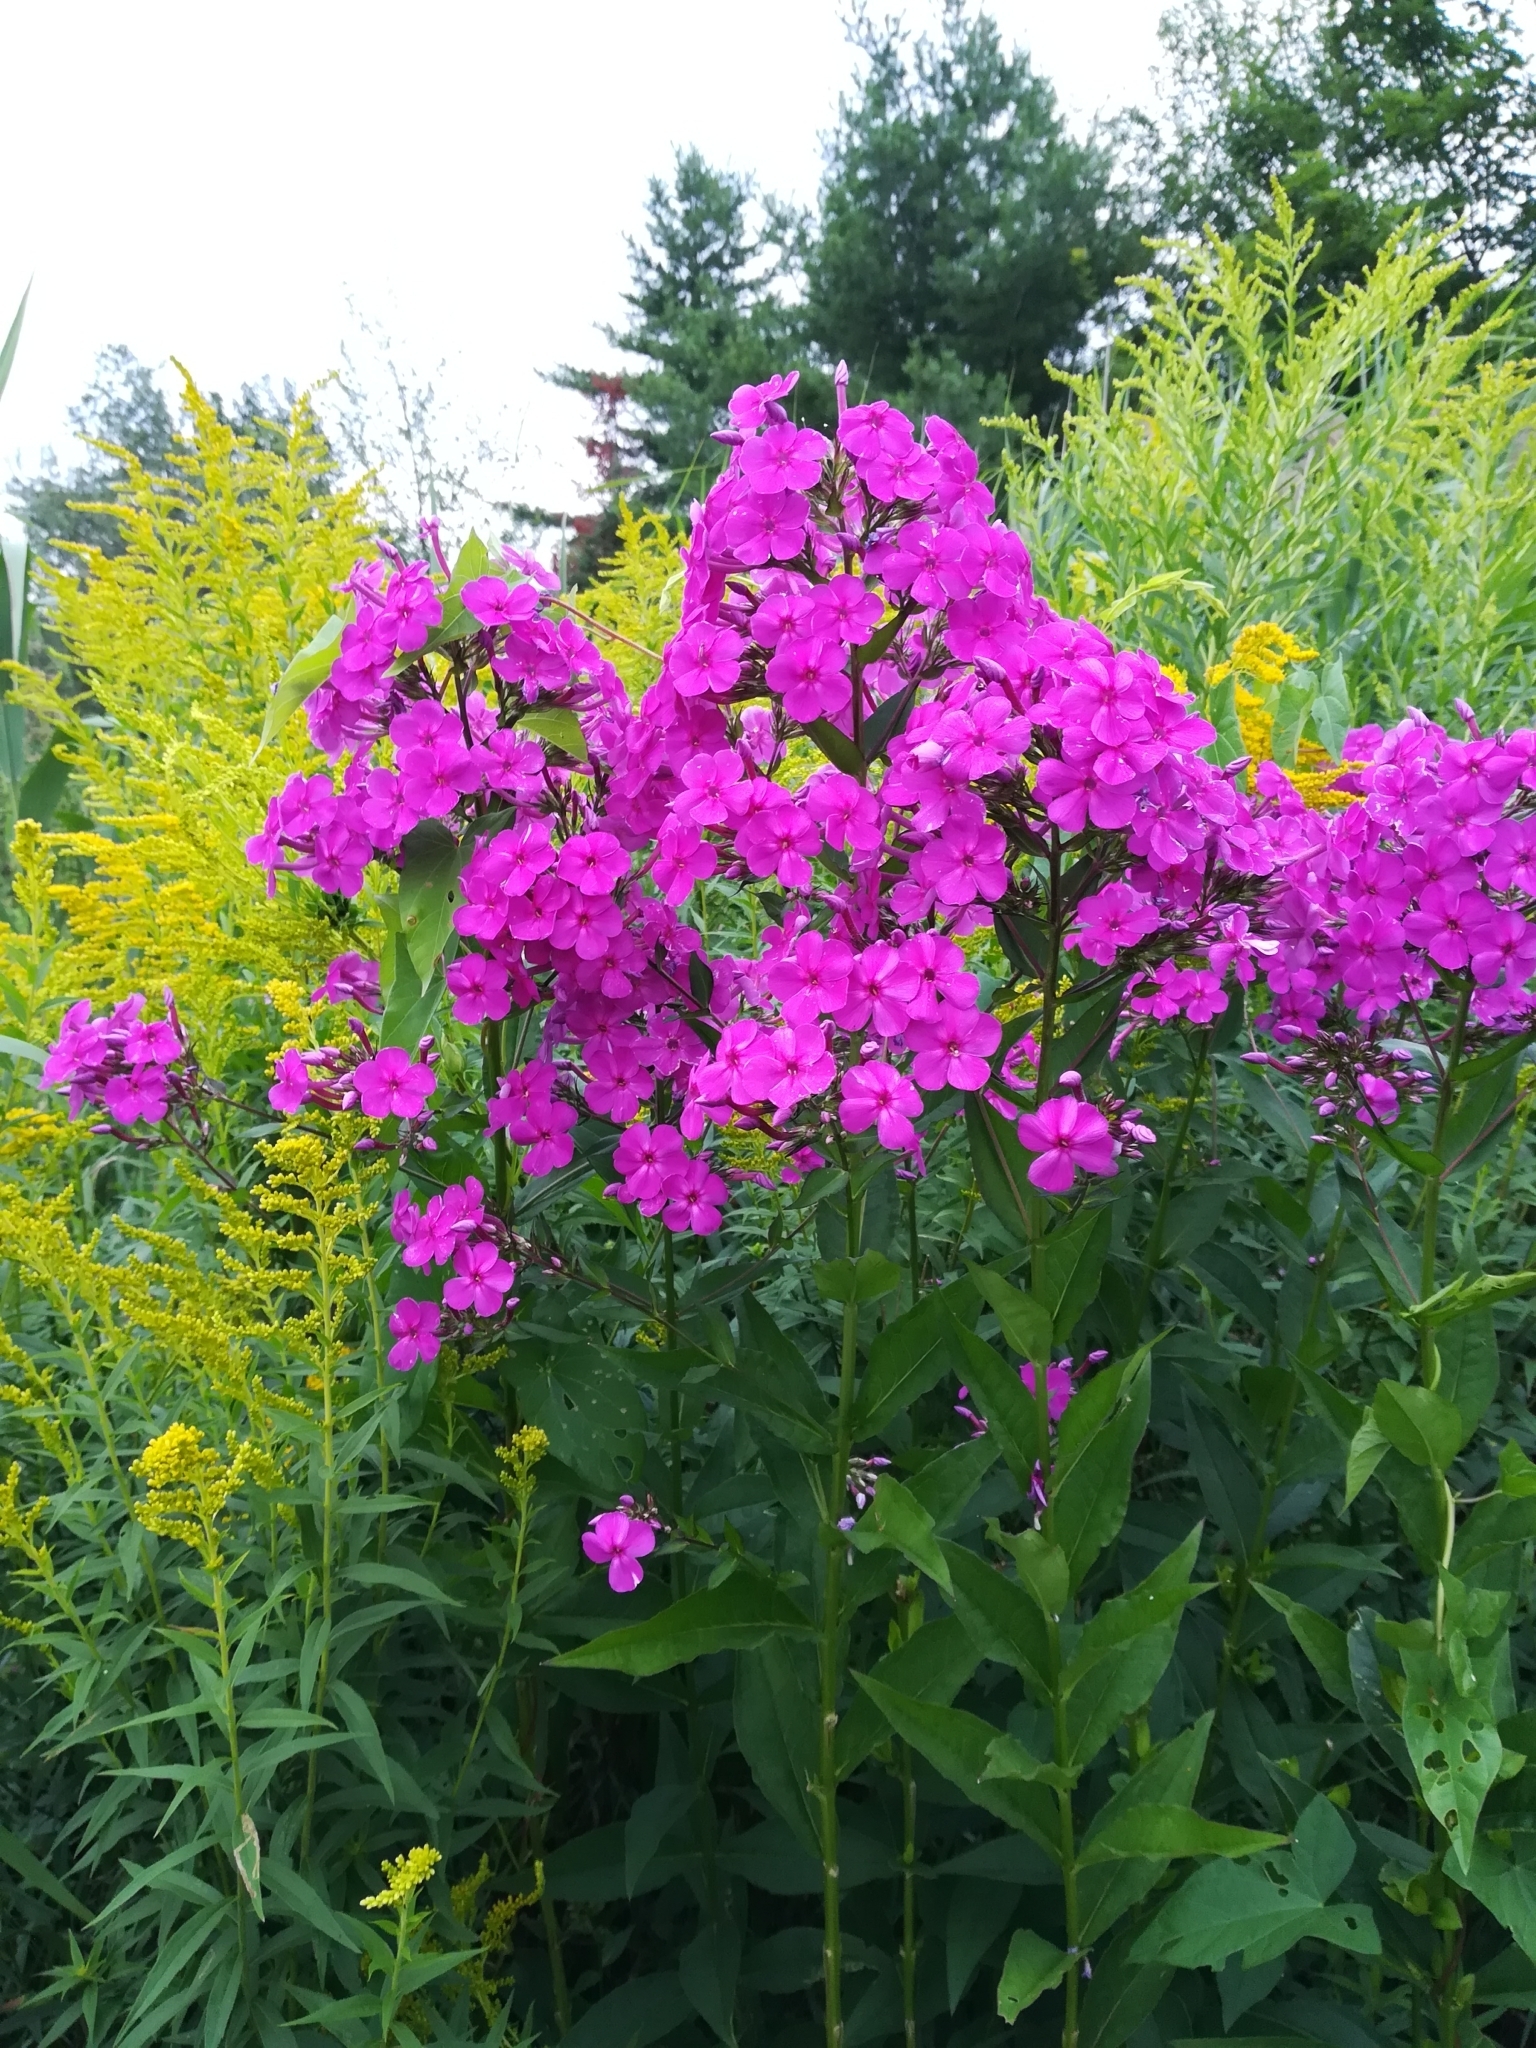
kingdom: Plantae
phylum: Tracheophyta
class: Magnoliopsida
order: Ericales
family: Polemoniaceae
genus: Phlox
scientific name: Phlox paniculata
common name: Fall phlox
